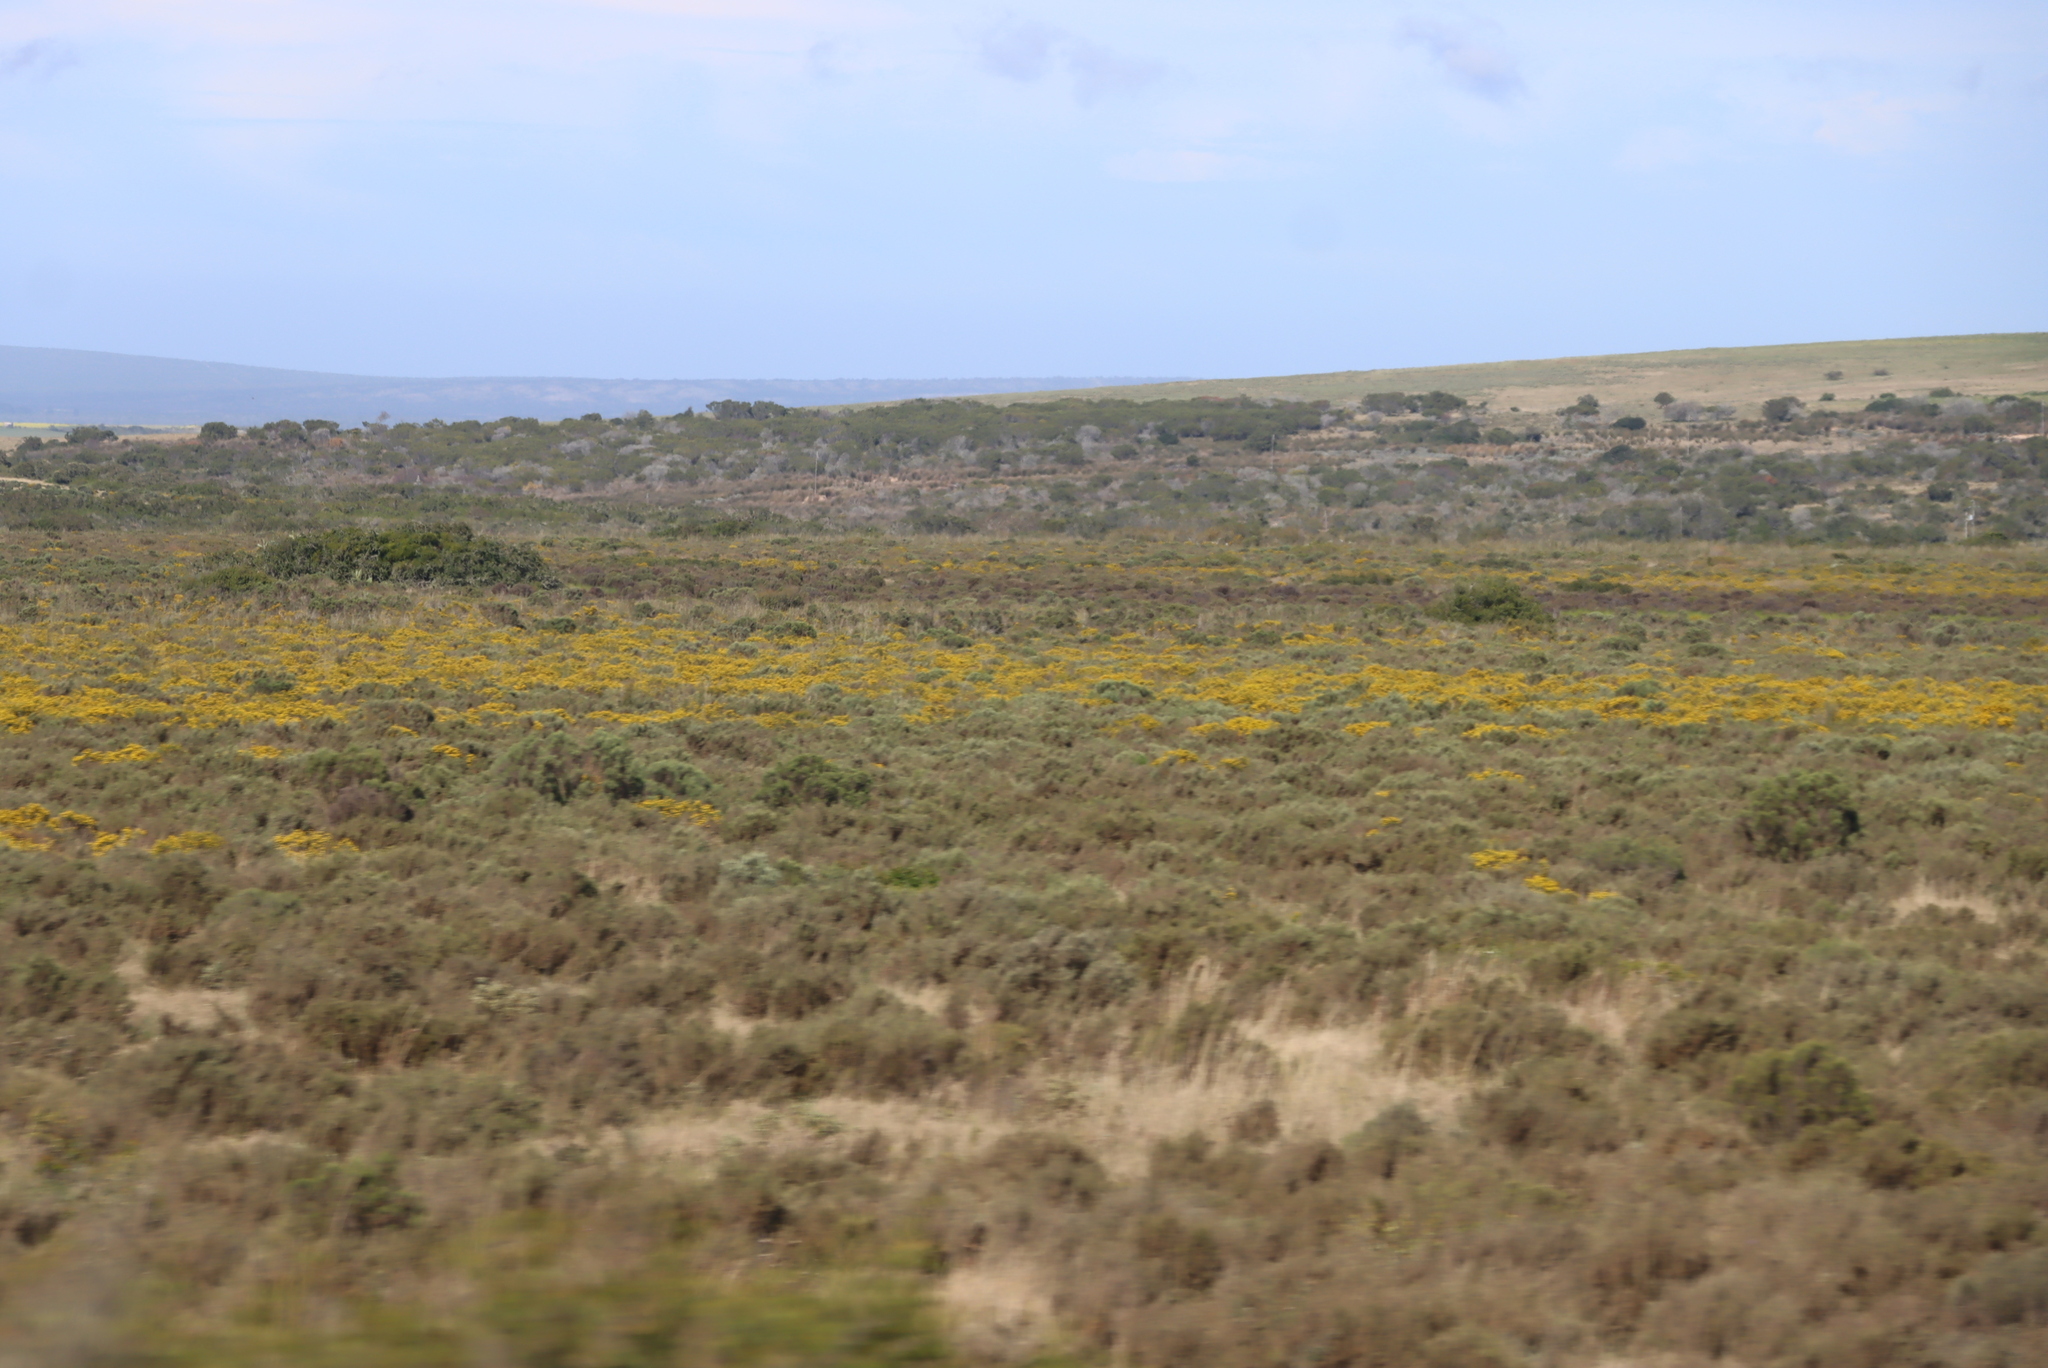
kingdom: Plantae
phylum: Tracheophyta
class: Magnoliopsida
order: Asterales
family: Asteraceae
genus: Dicerothamnus
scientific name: Dicerothamnus rhinocerotis
